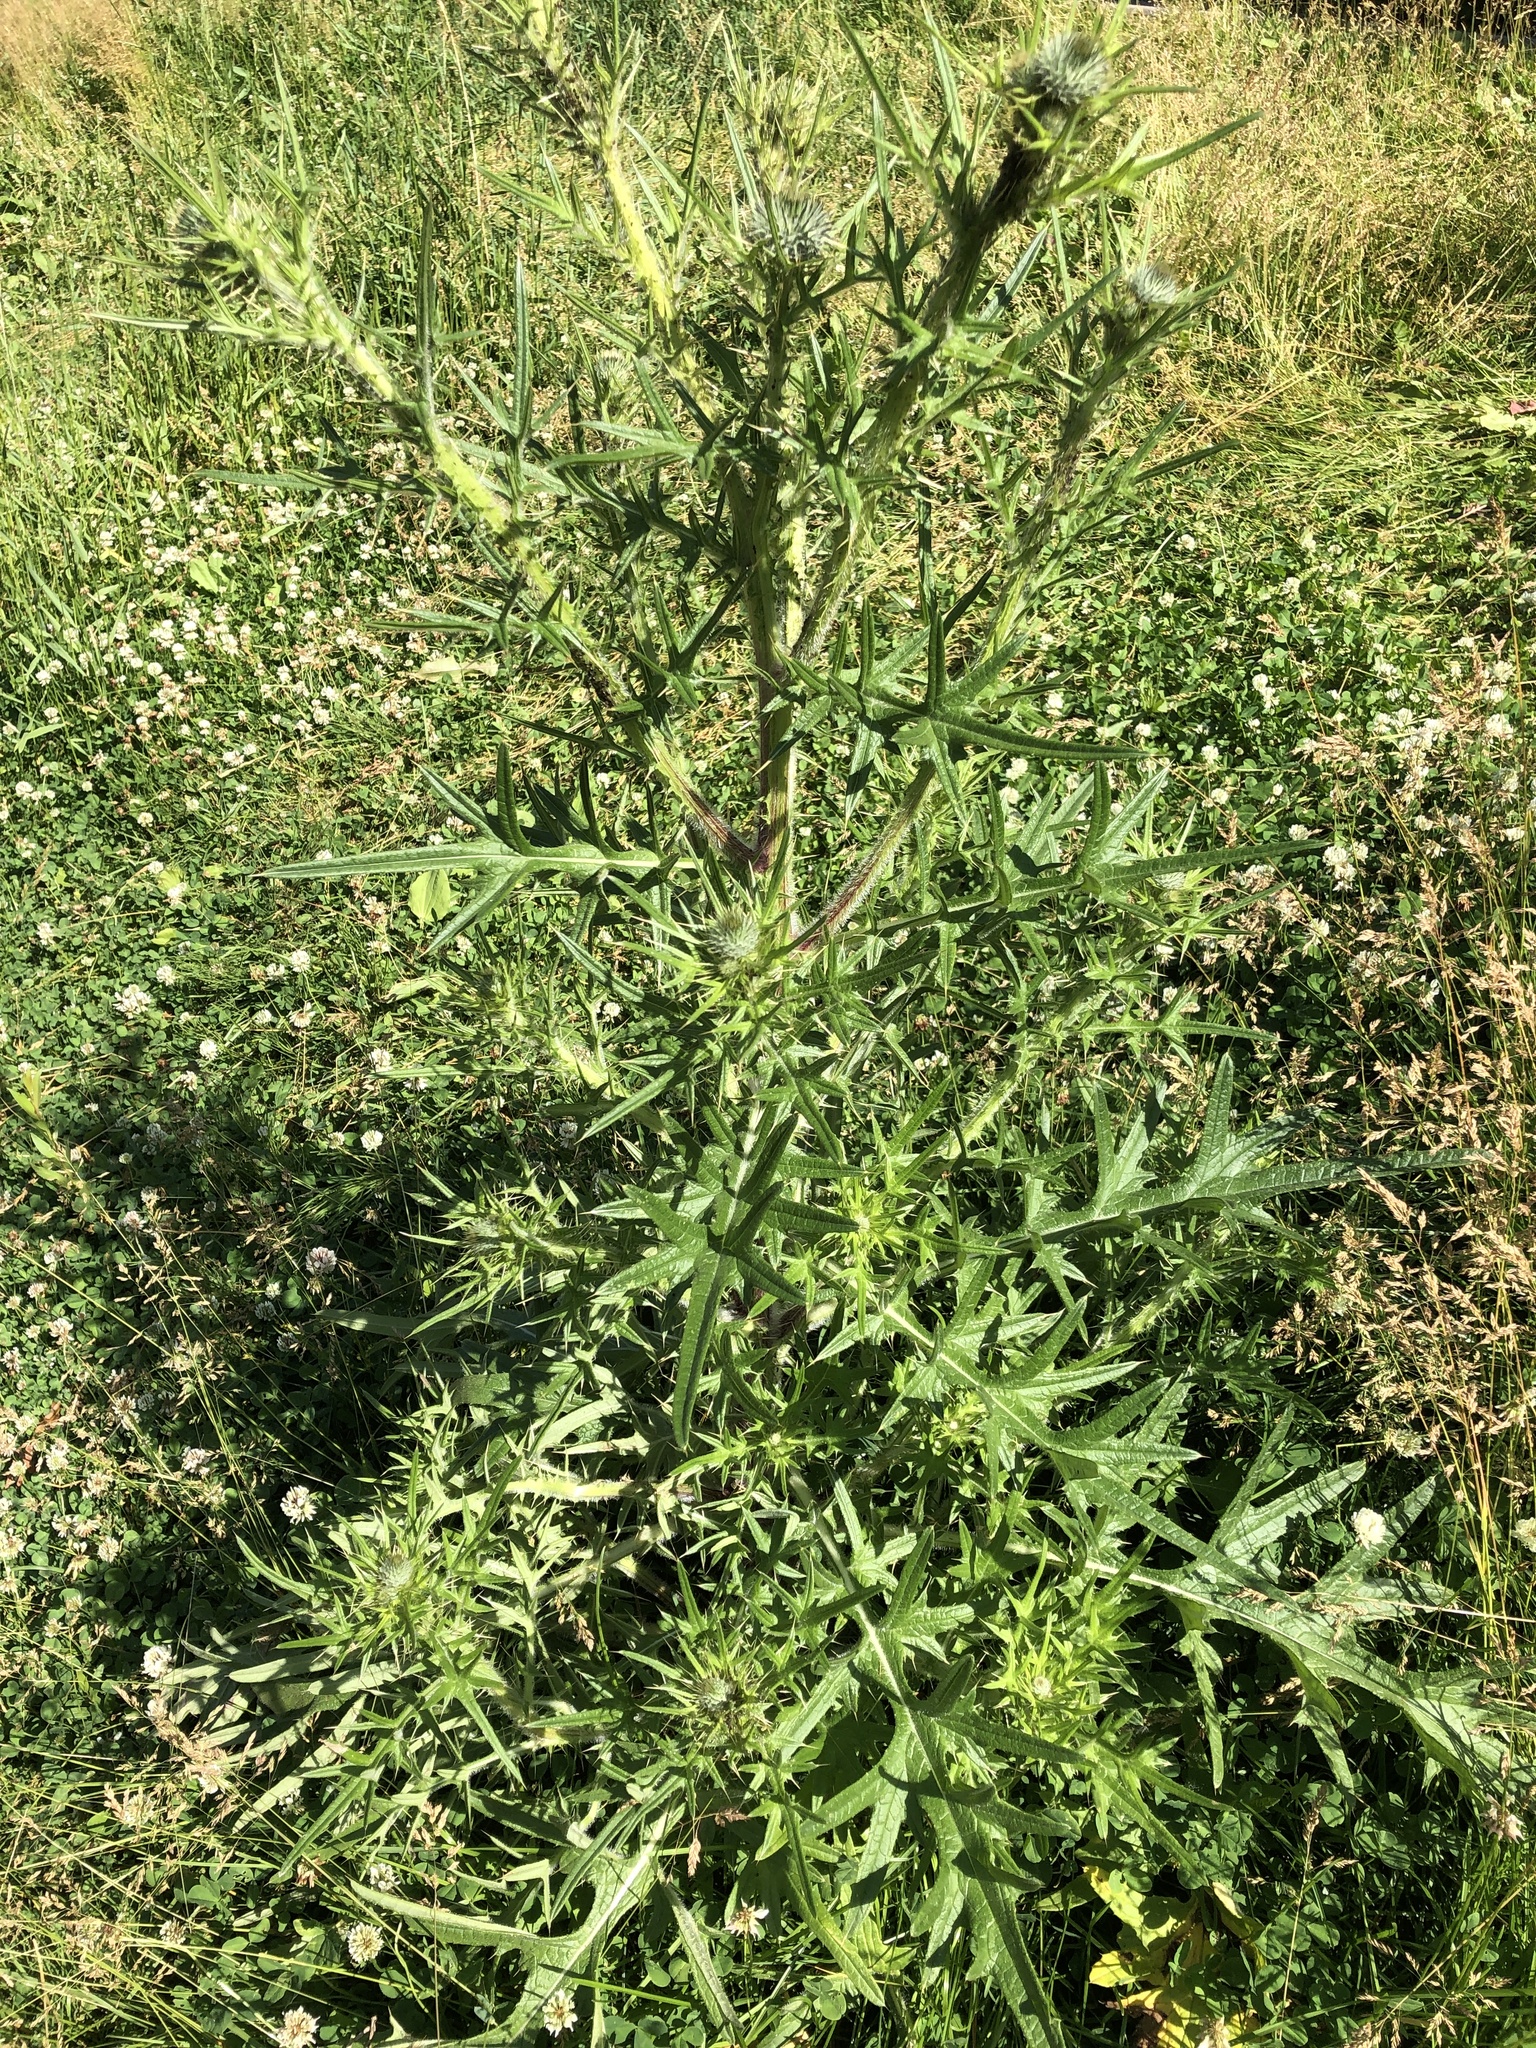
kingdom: Plantae
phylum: Tracheophyta
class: Magnoliopsida
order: Asterales
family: Asteraceae
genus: Cirsium
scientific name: Cirsium vulgare
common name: Bull thistle
